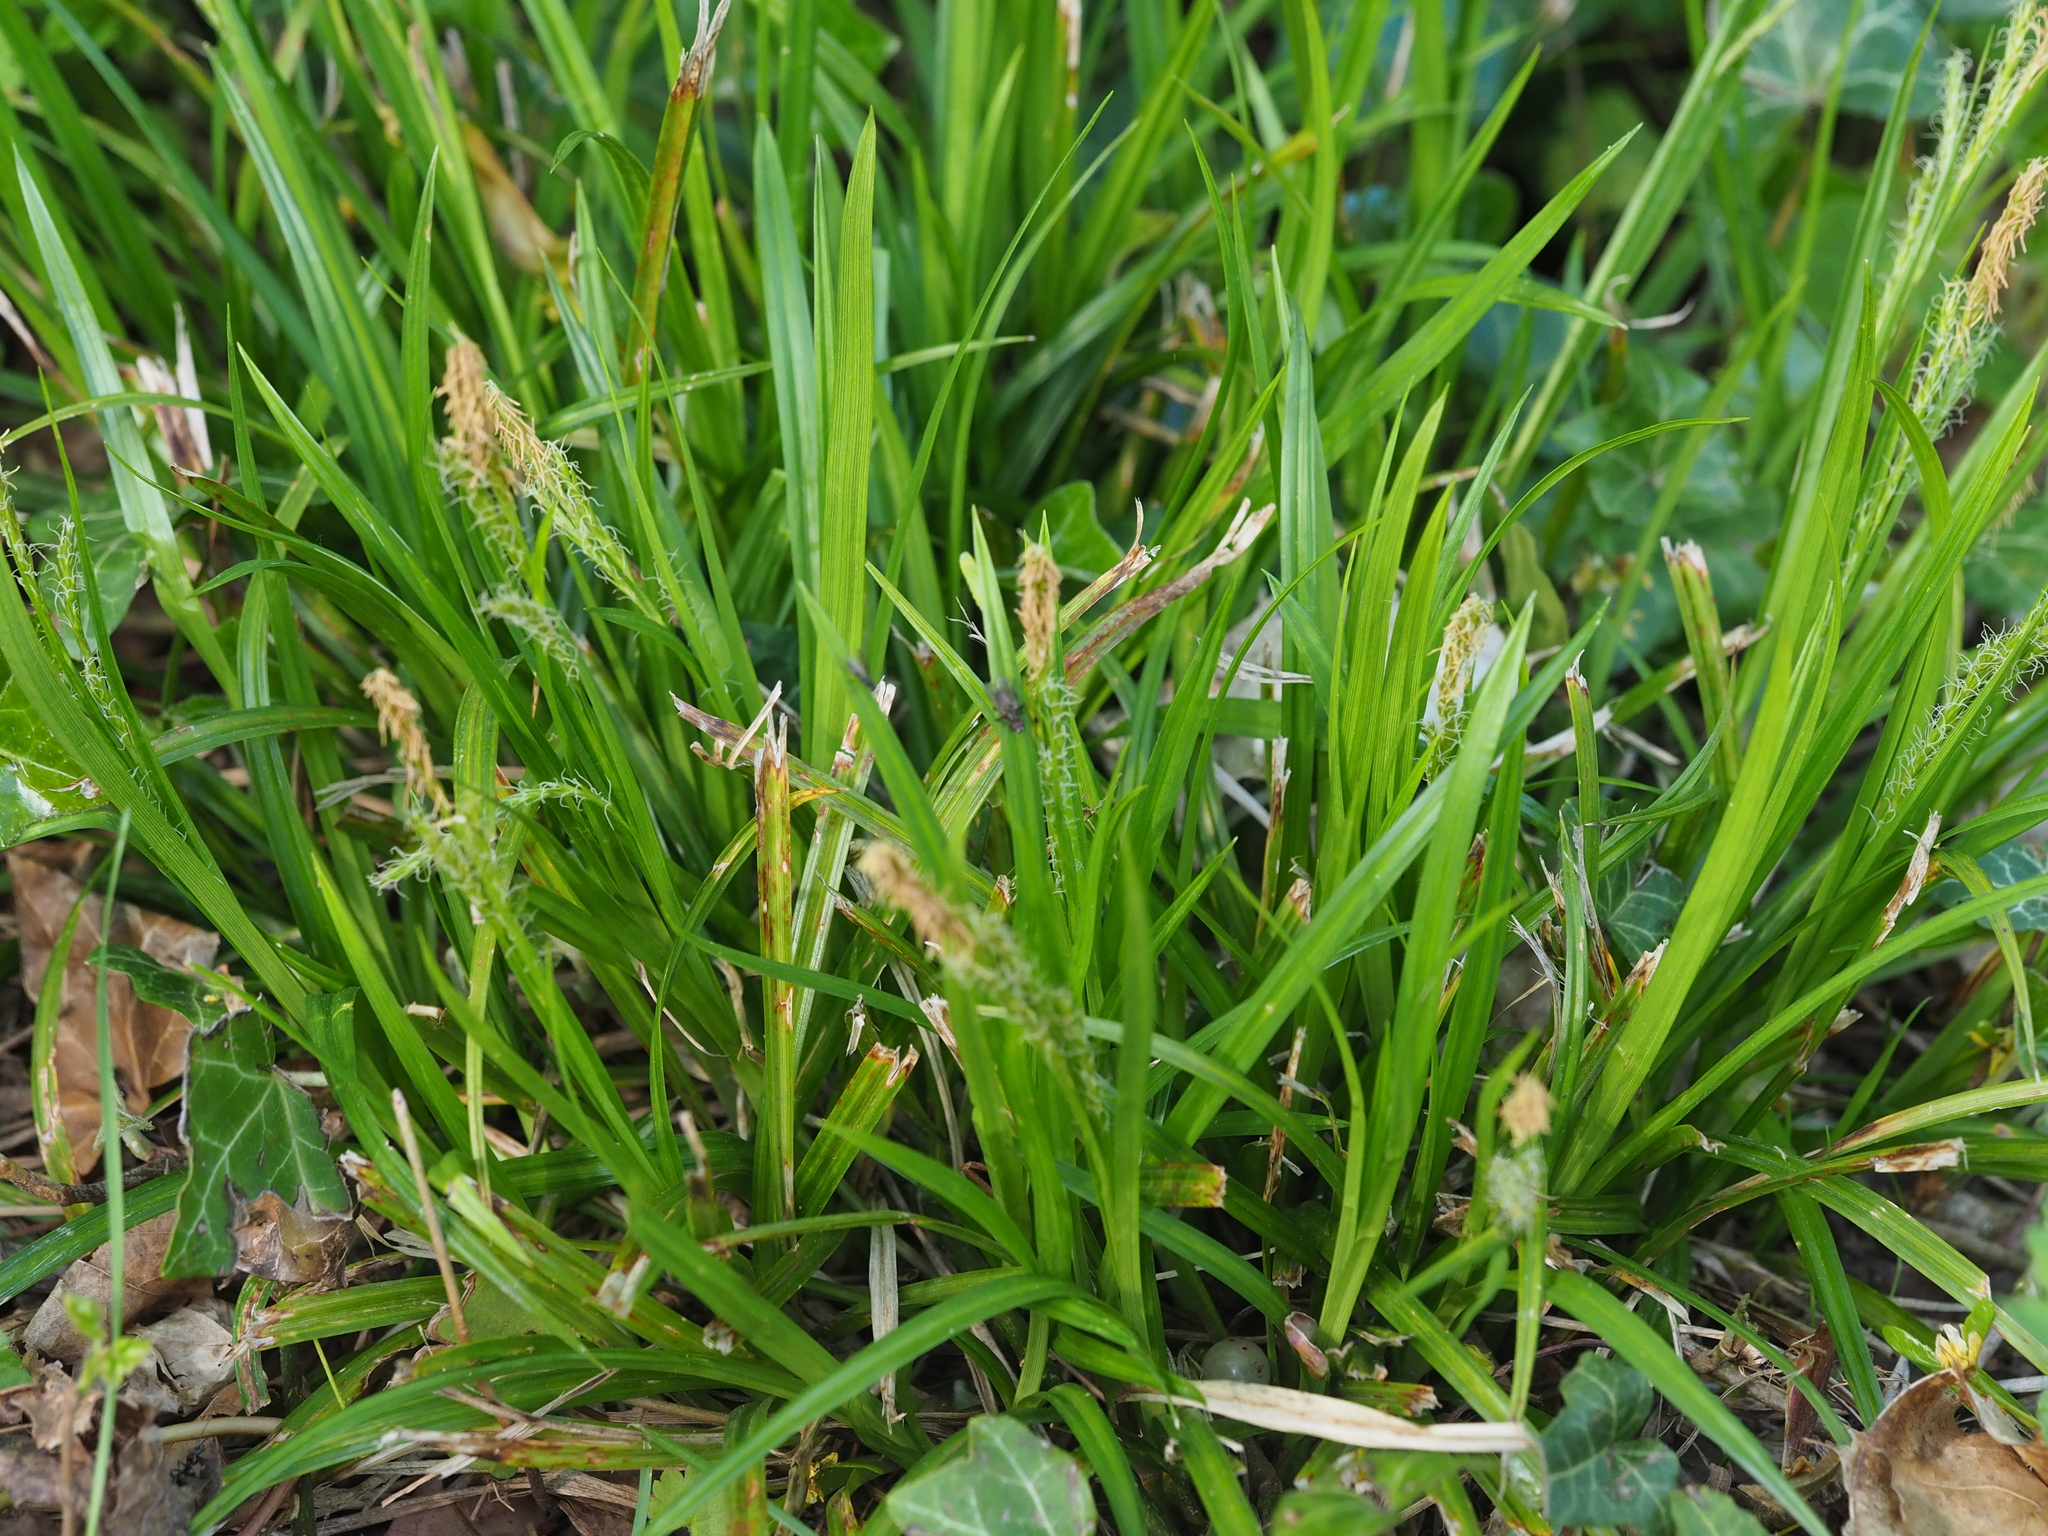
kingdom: Plantae
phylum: Tracheophyta
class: Liliopsida
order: Poales
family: Cyperaceae
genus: Carex
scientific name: Carex sylvatica
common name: Wood-sedge
